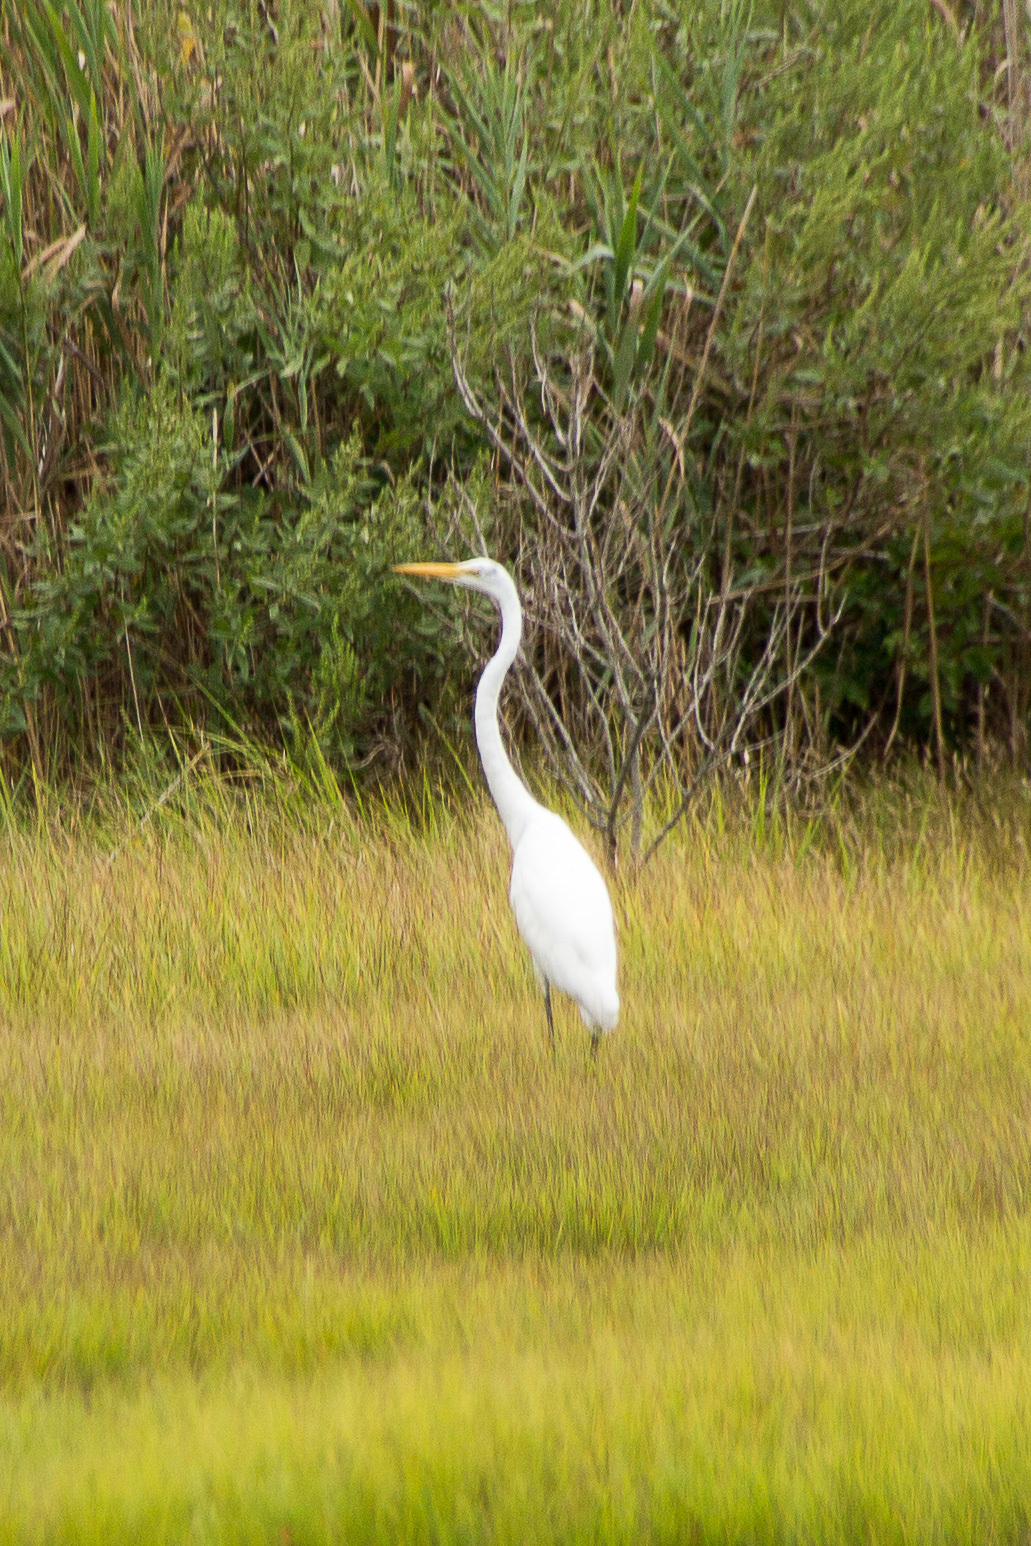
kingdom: Animalia
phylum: Chordata
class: Aves
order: Pelecaniformes
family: Ardeidae
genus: Ardea
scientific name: Ardea alba
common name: Great egret
